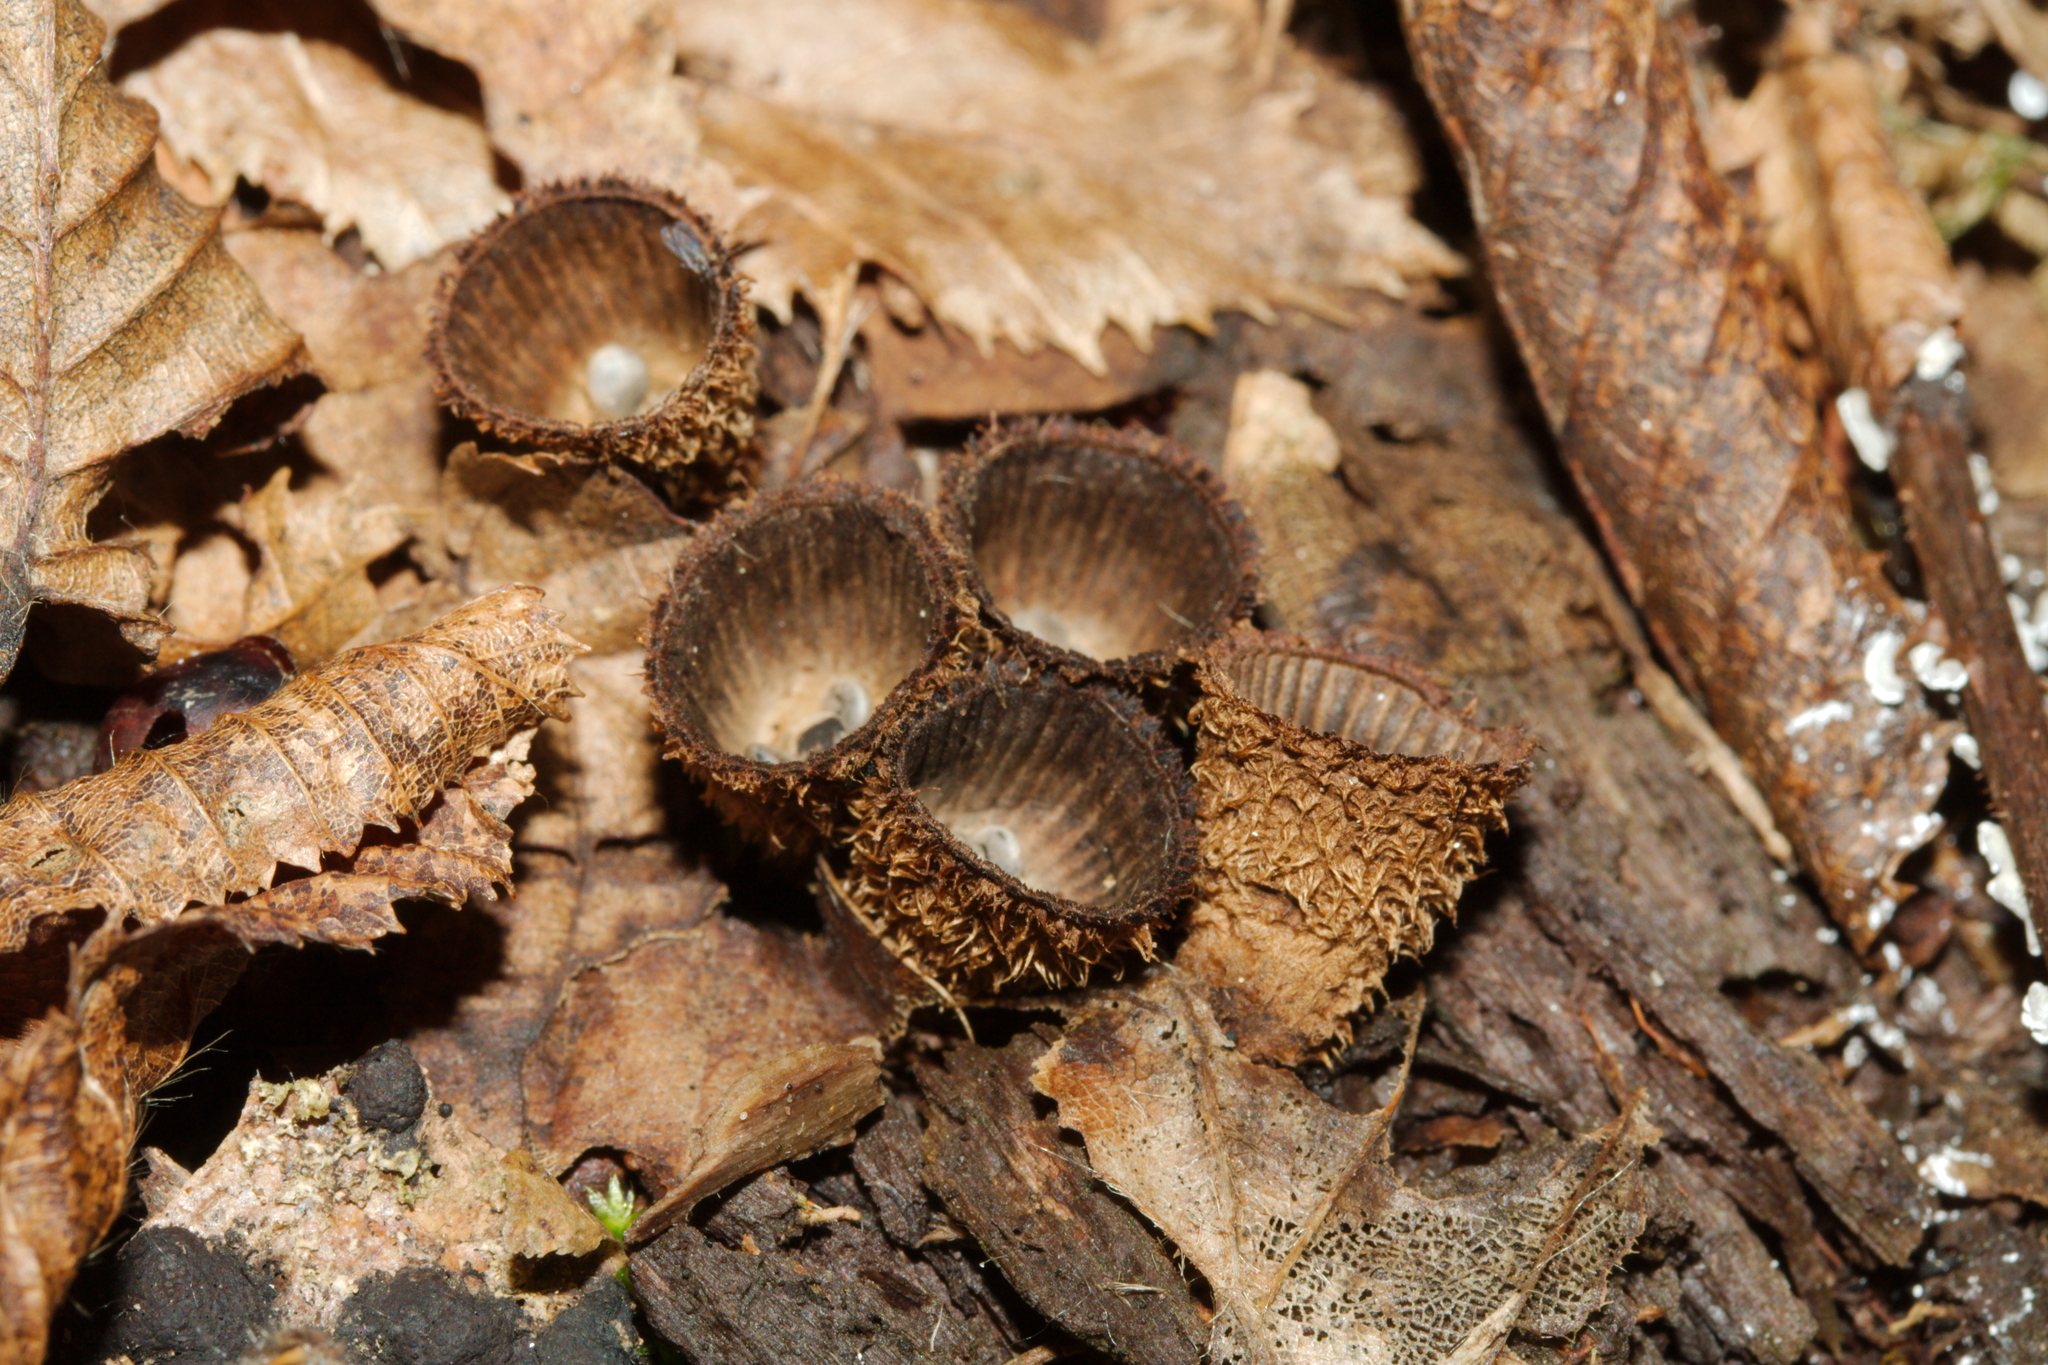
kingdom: Fungi
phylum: Basidiomycota
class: Agaricomycetes
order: Agaricales
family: Agaricaceae
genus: Cyathus
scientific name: Cyathus striatus
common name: Fluted bird's nest
